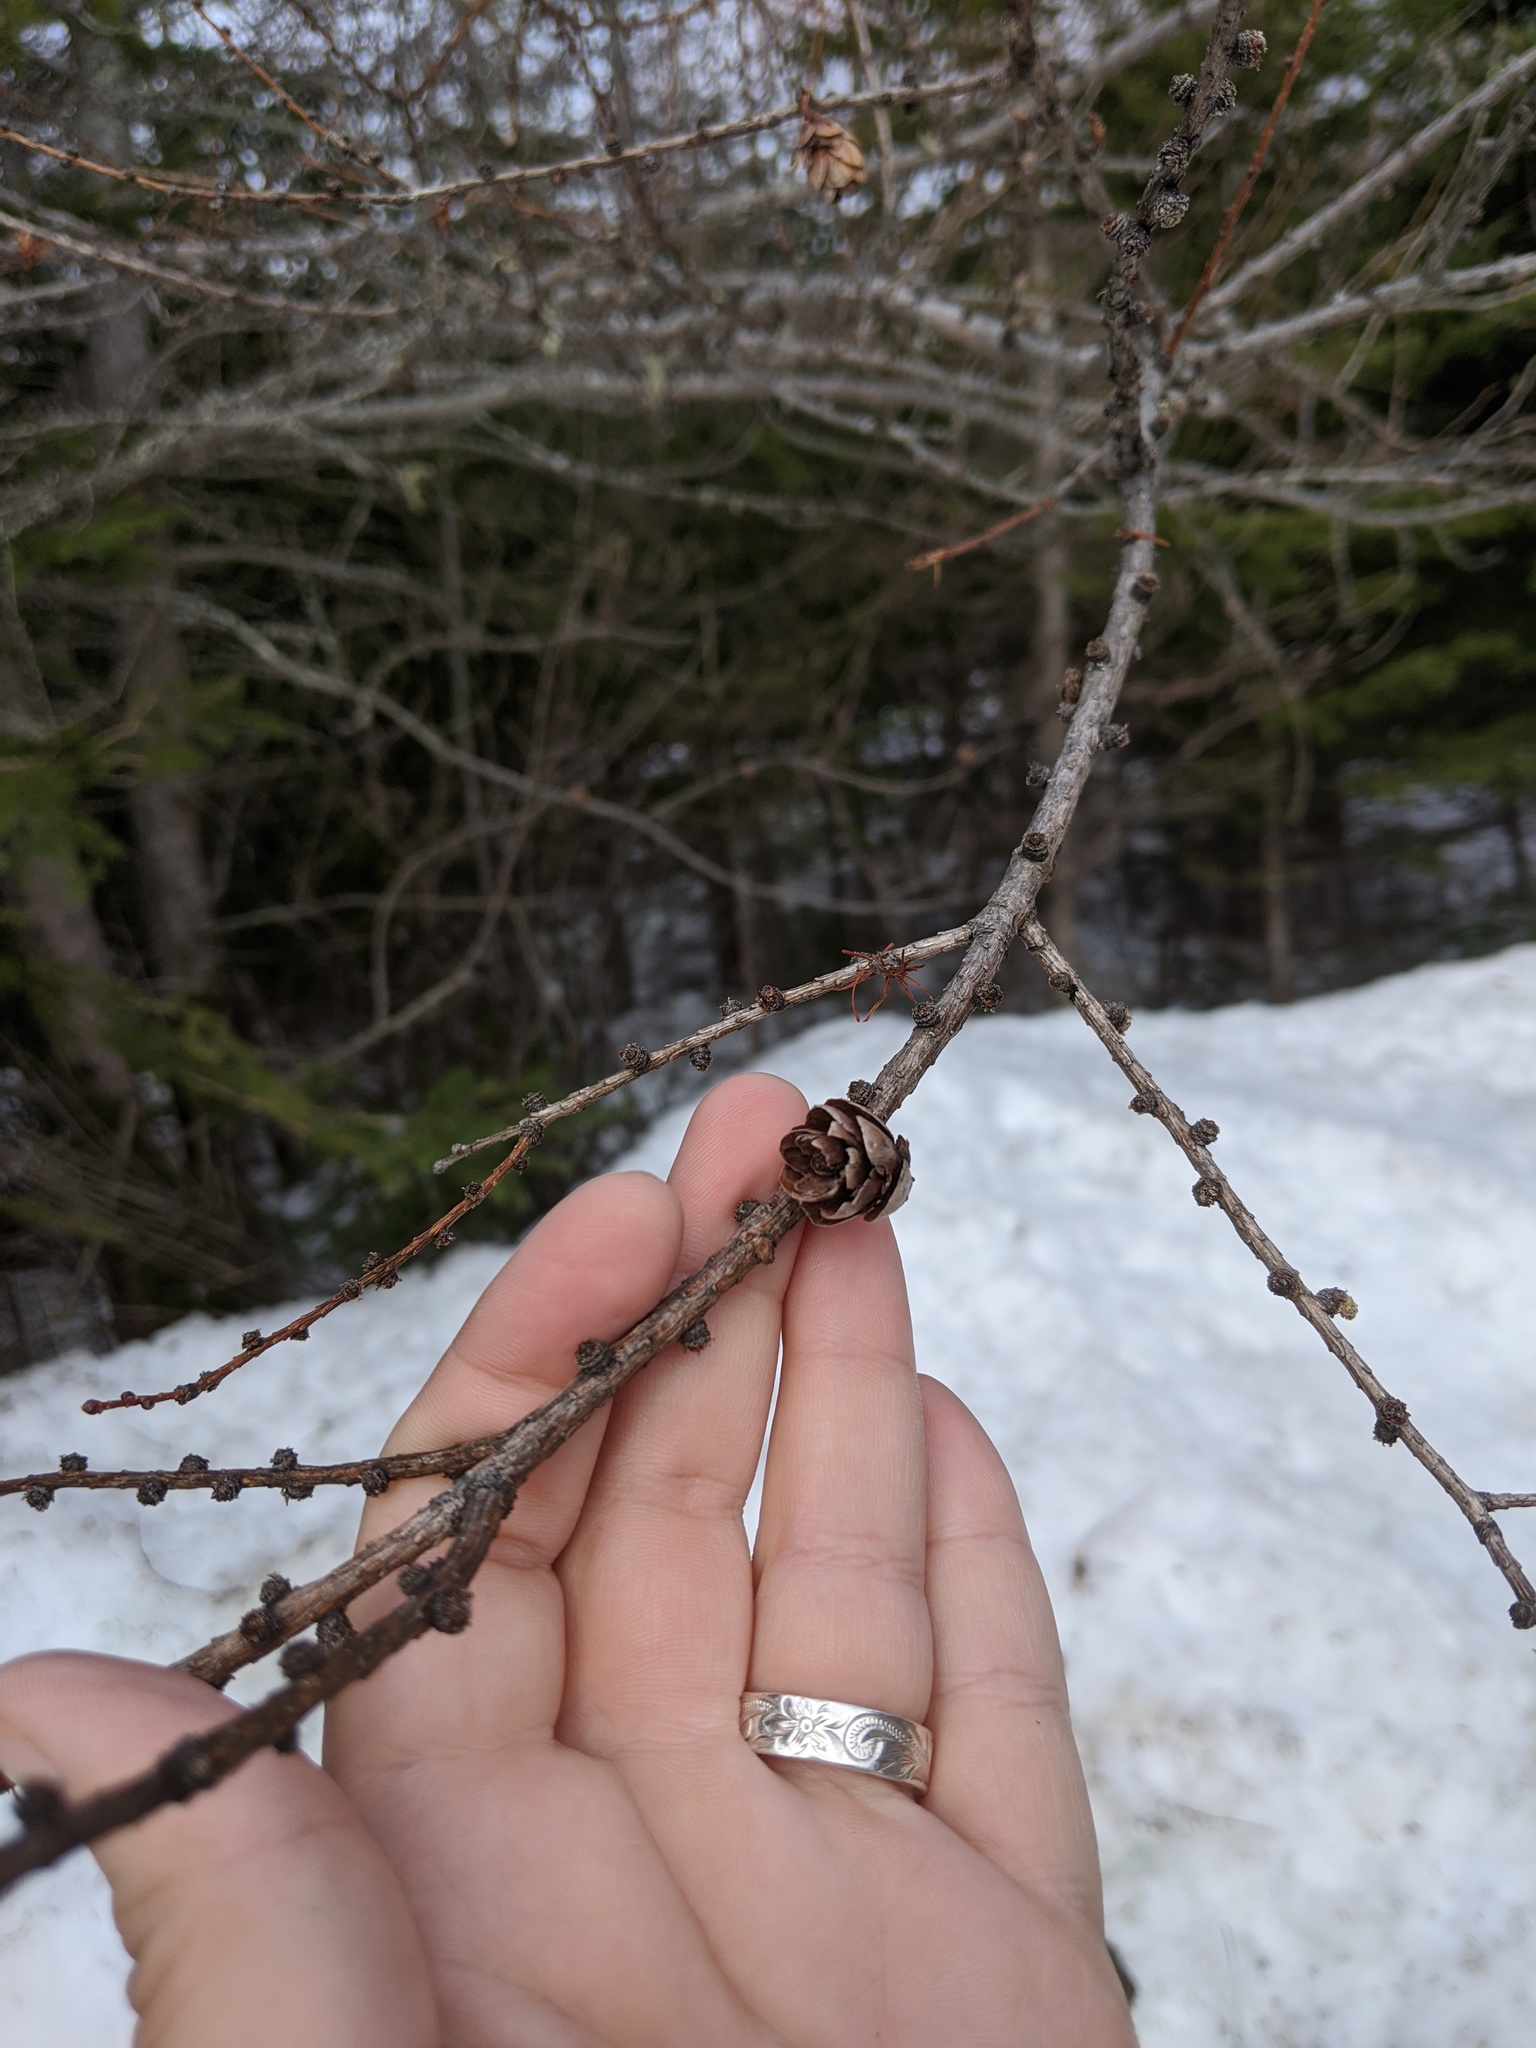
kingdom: Plantae
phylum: Tracheophyta
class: Pinopsida
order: Pinales
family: Pinaceae
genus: Larix
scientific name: Larix laricina
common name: American larch
